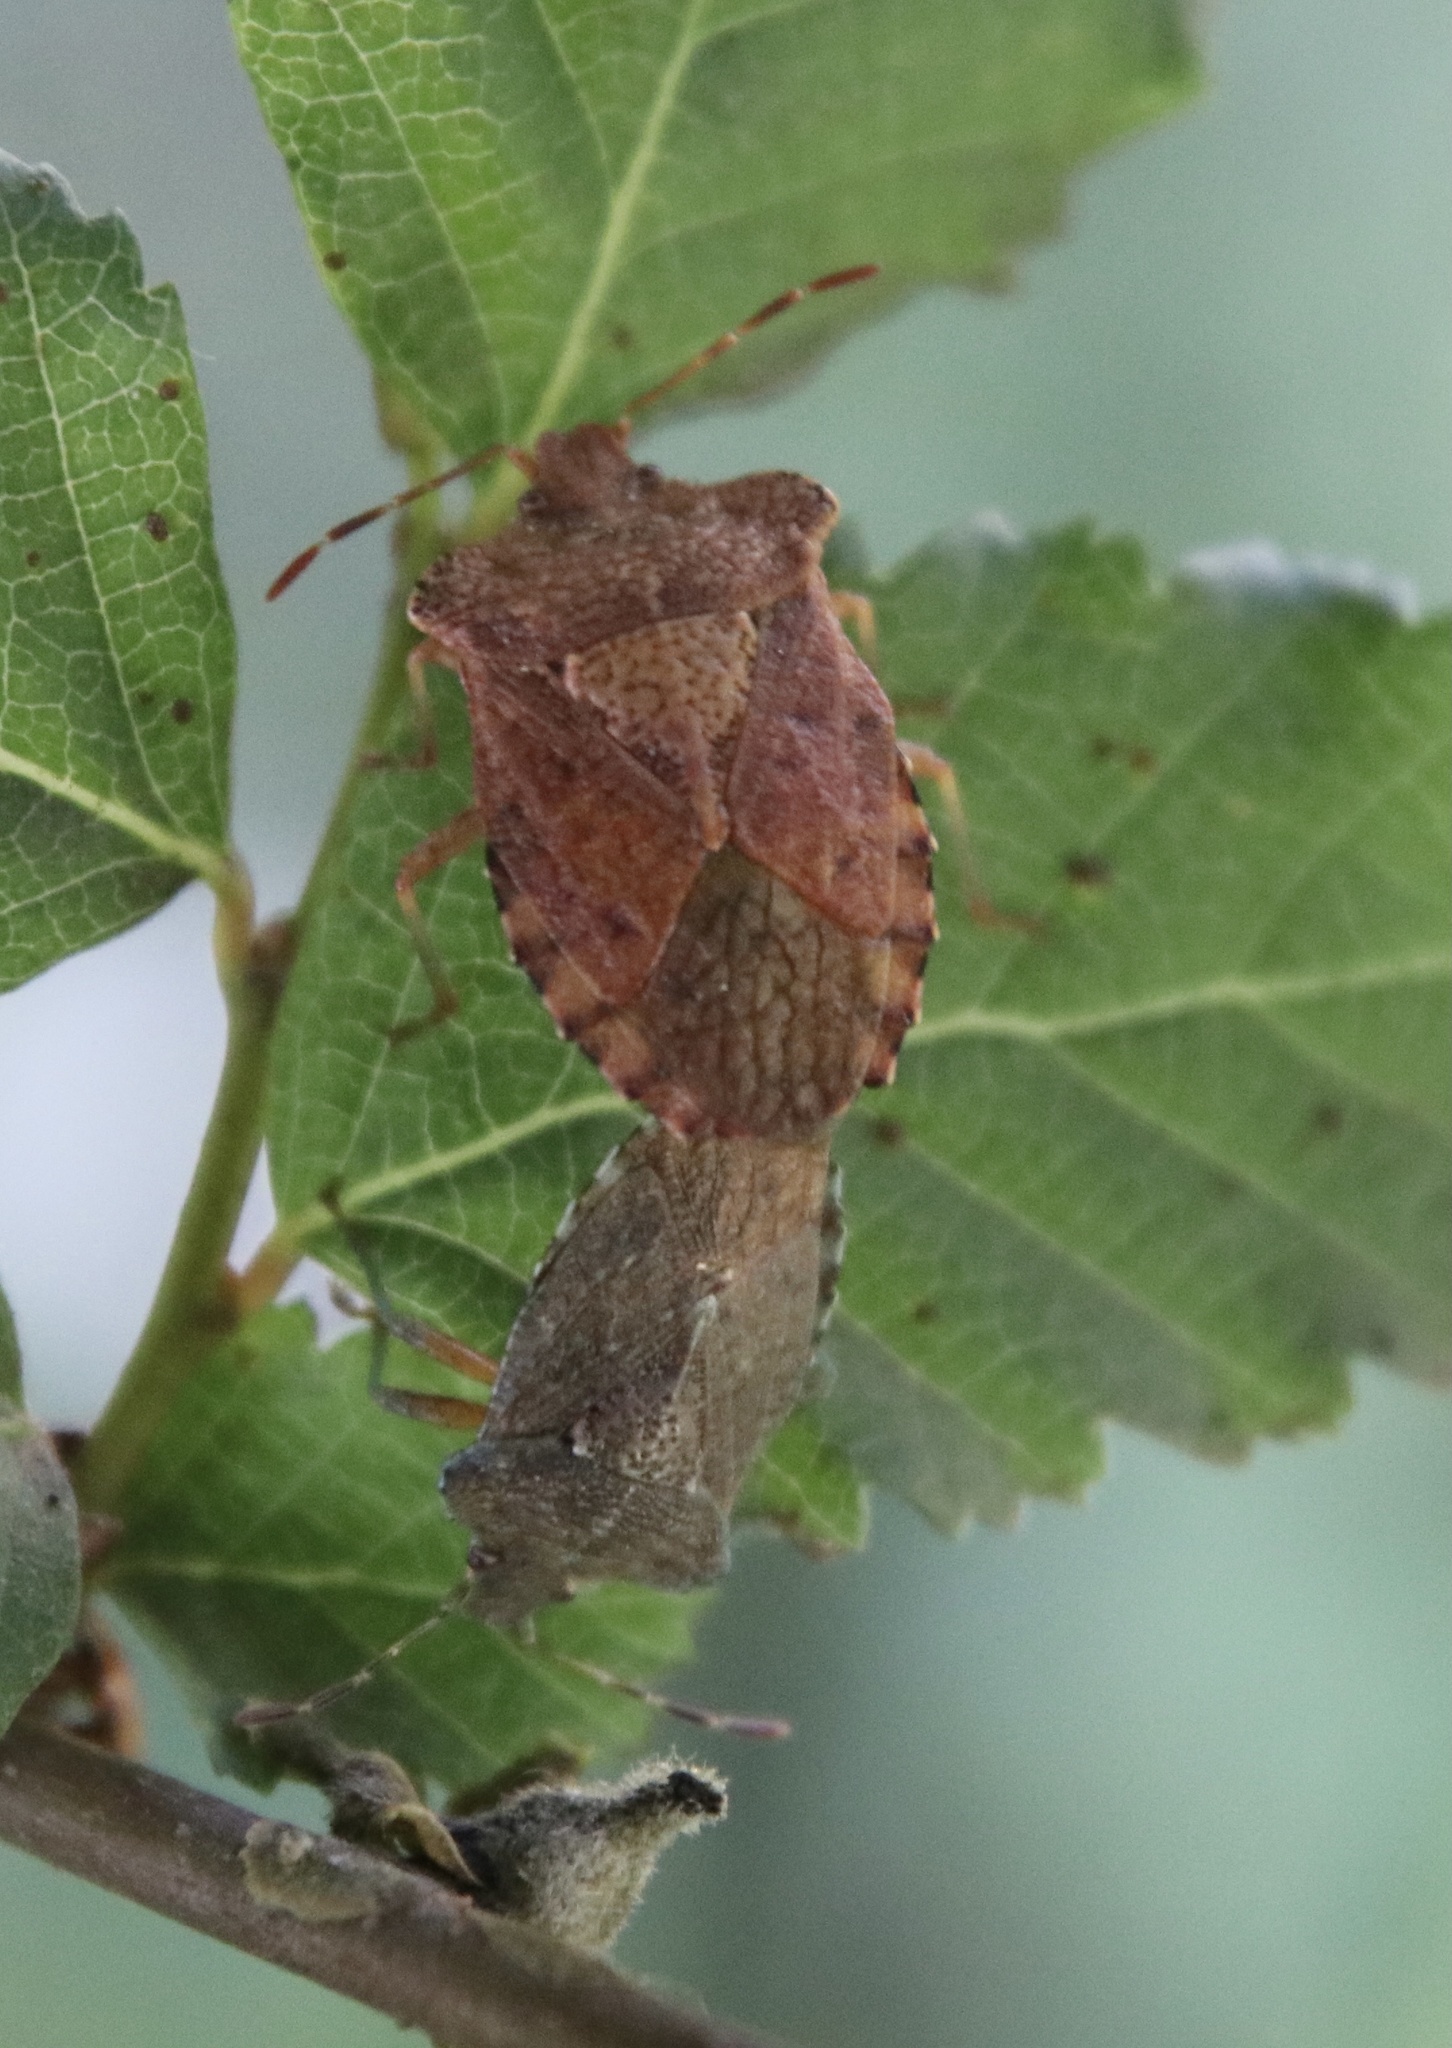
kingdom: Animalia
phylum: Arthropoda
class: Insecta
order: Hemiptera
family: Acanthosomatidae
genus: Lanopis
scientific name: Lanopis rugosus
